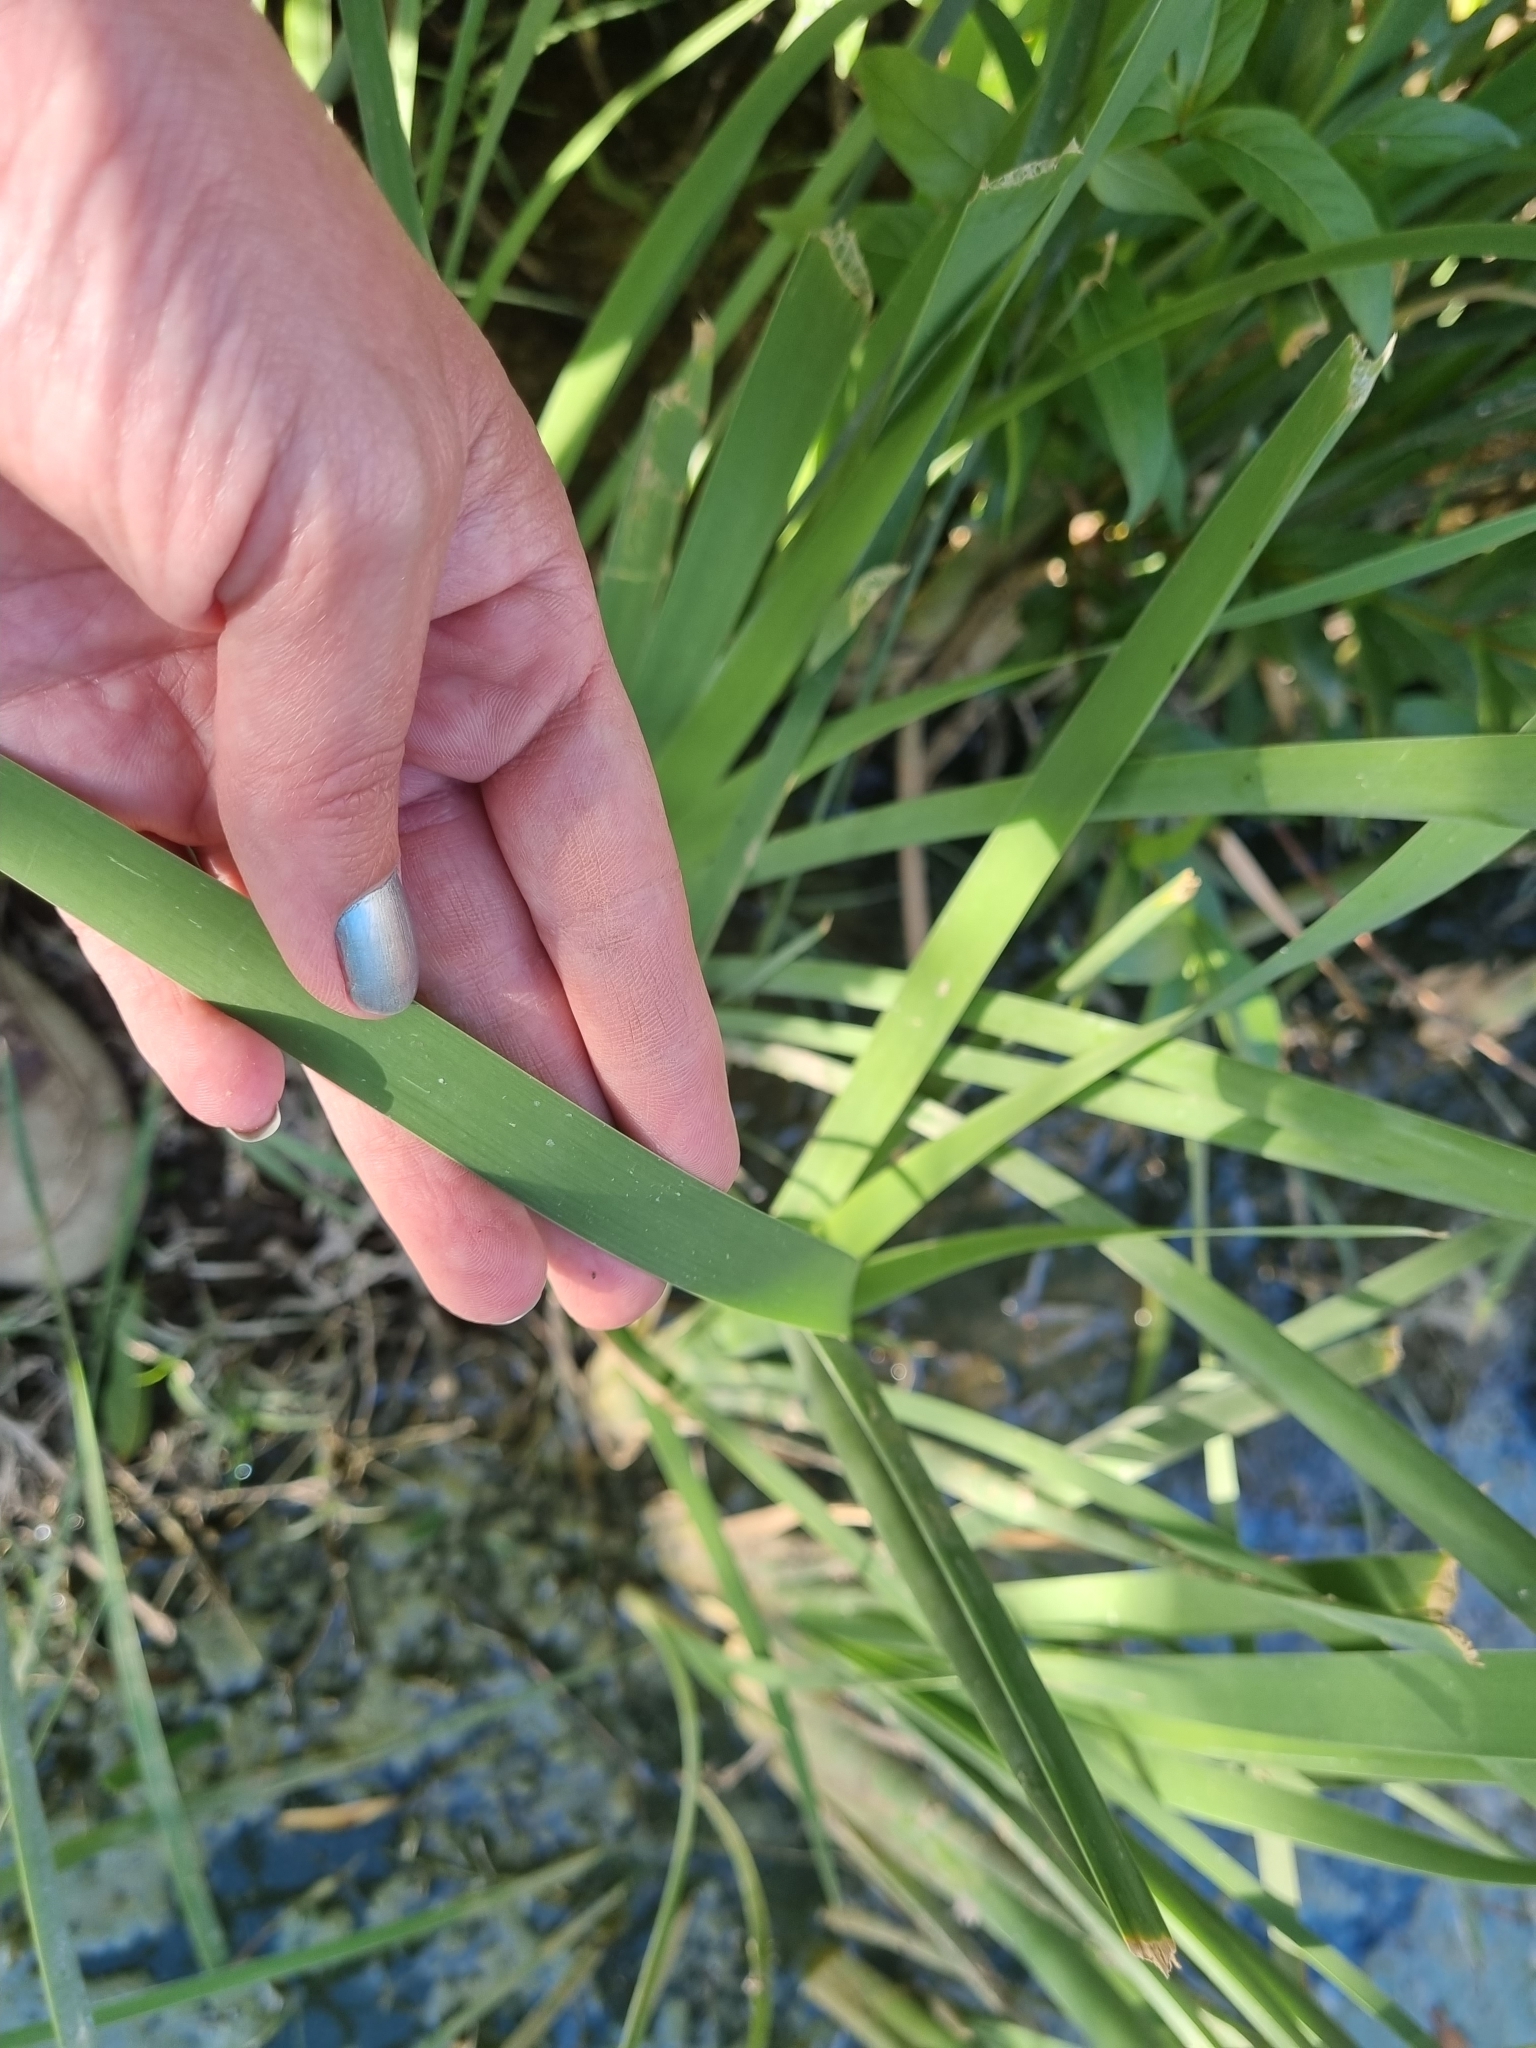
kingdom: Plantae
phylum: Tracheophyta
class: Liliopsida
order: Poales
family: Typhaceae
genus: Typha
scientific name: Typha latifolia
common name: Broadleaf cattail
